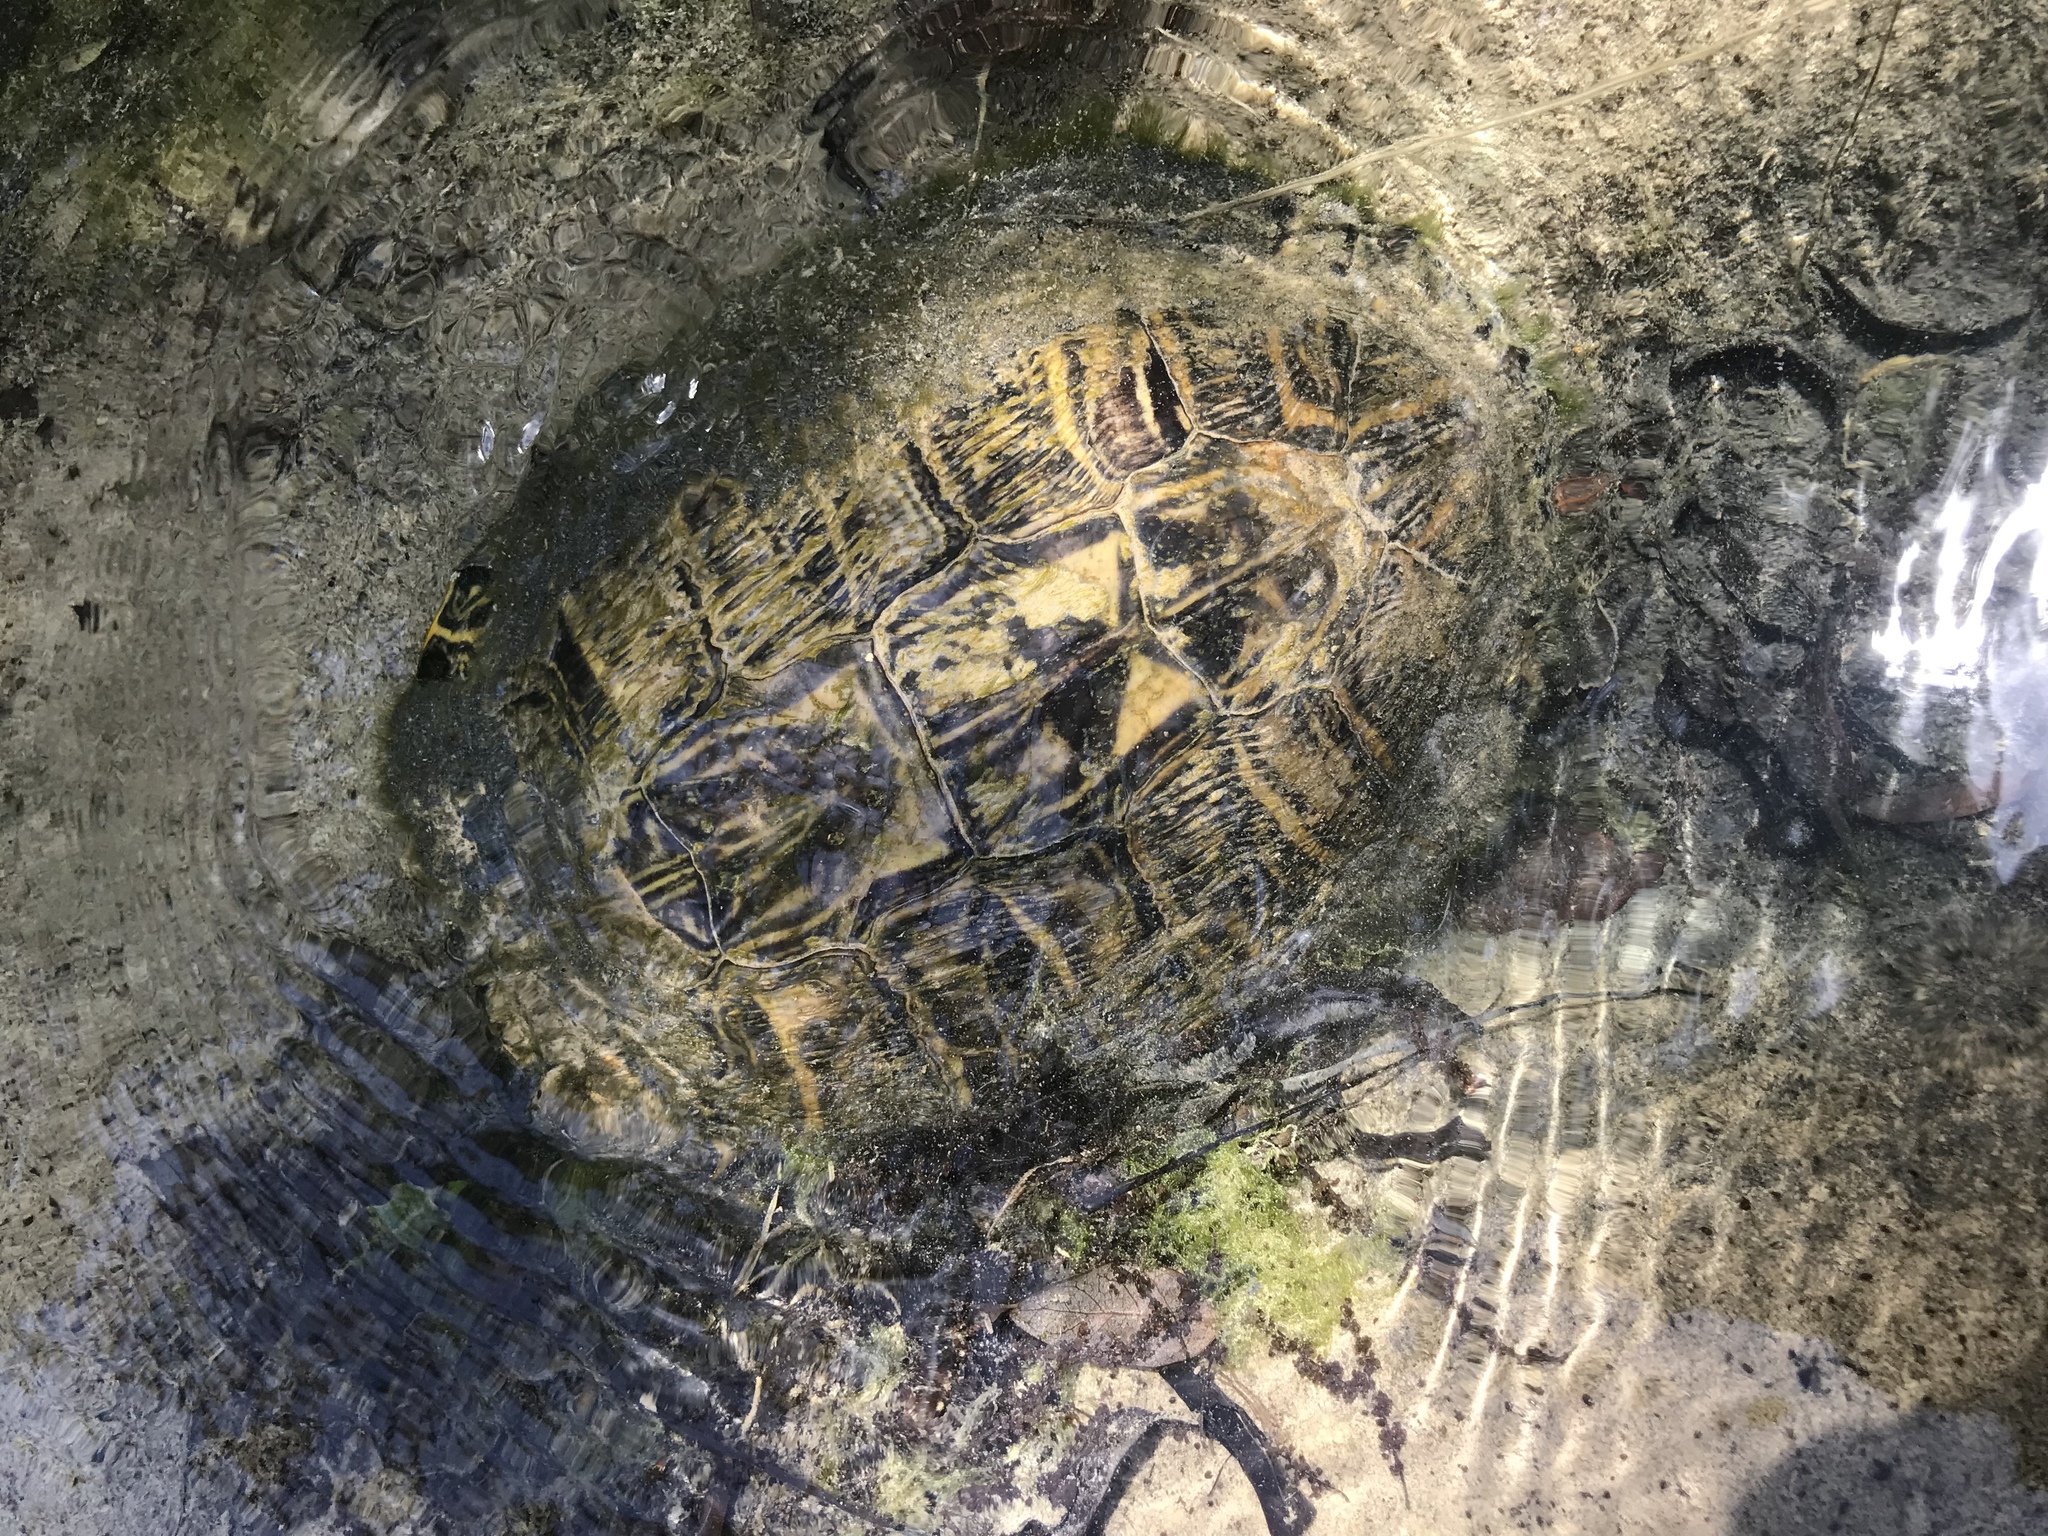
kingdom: Animalia
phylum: Chordata
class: Testudines
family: Emydidae
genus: Trachemys
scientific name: Trachemys scripta
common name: Slider
